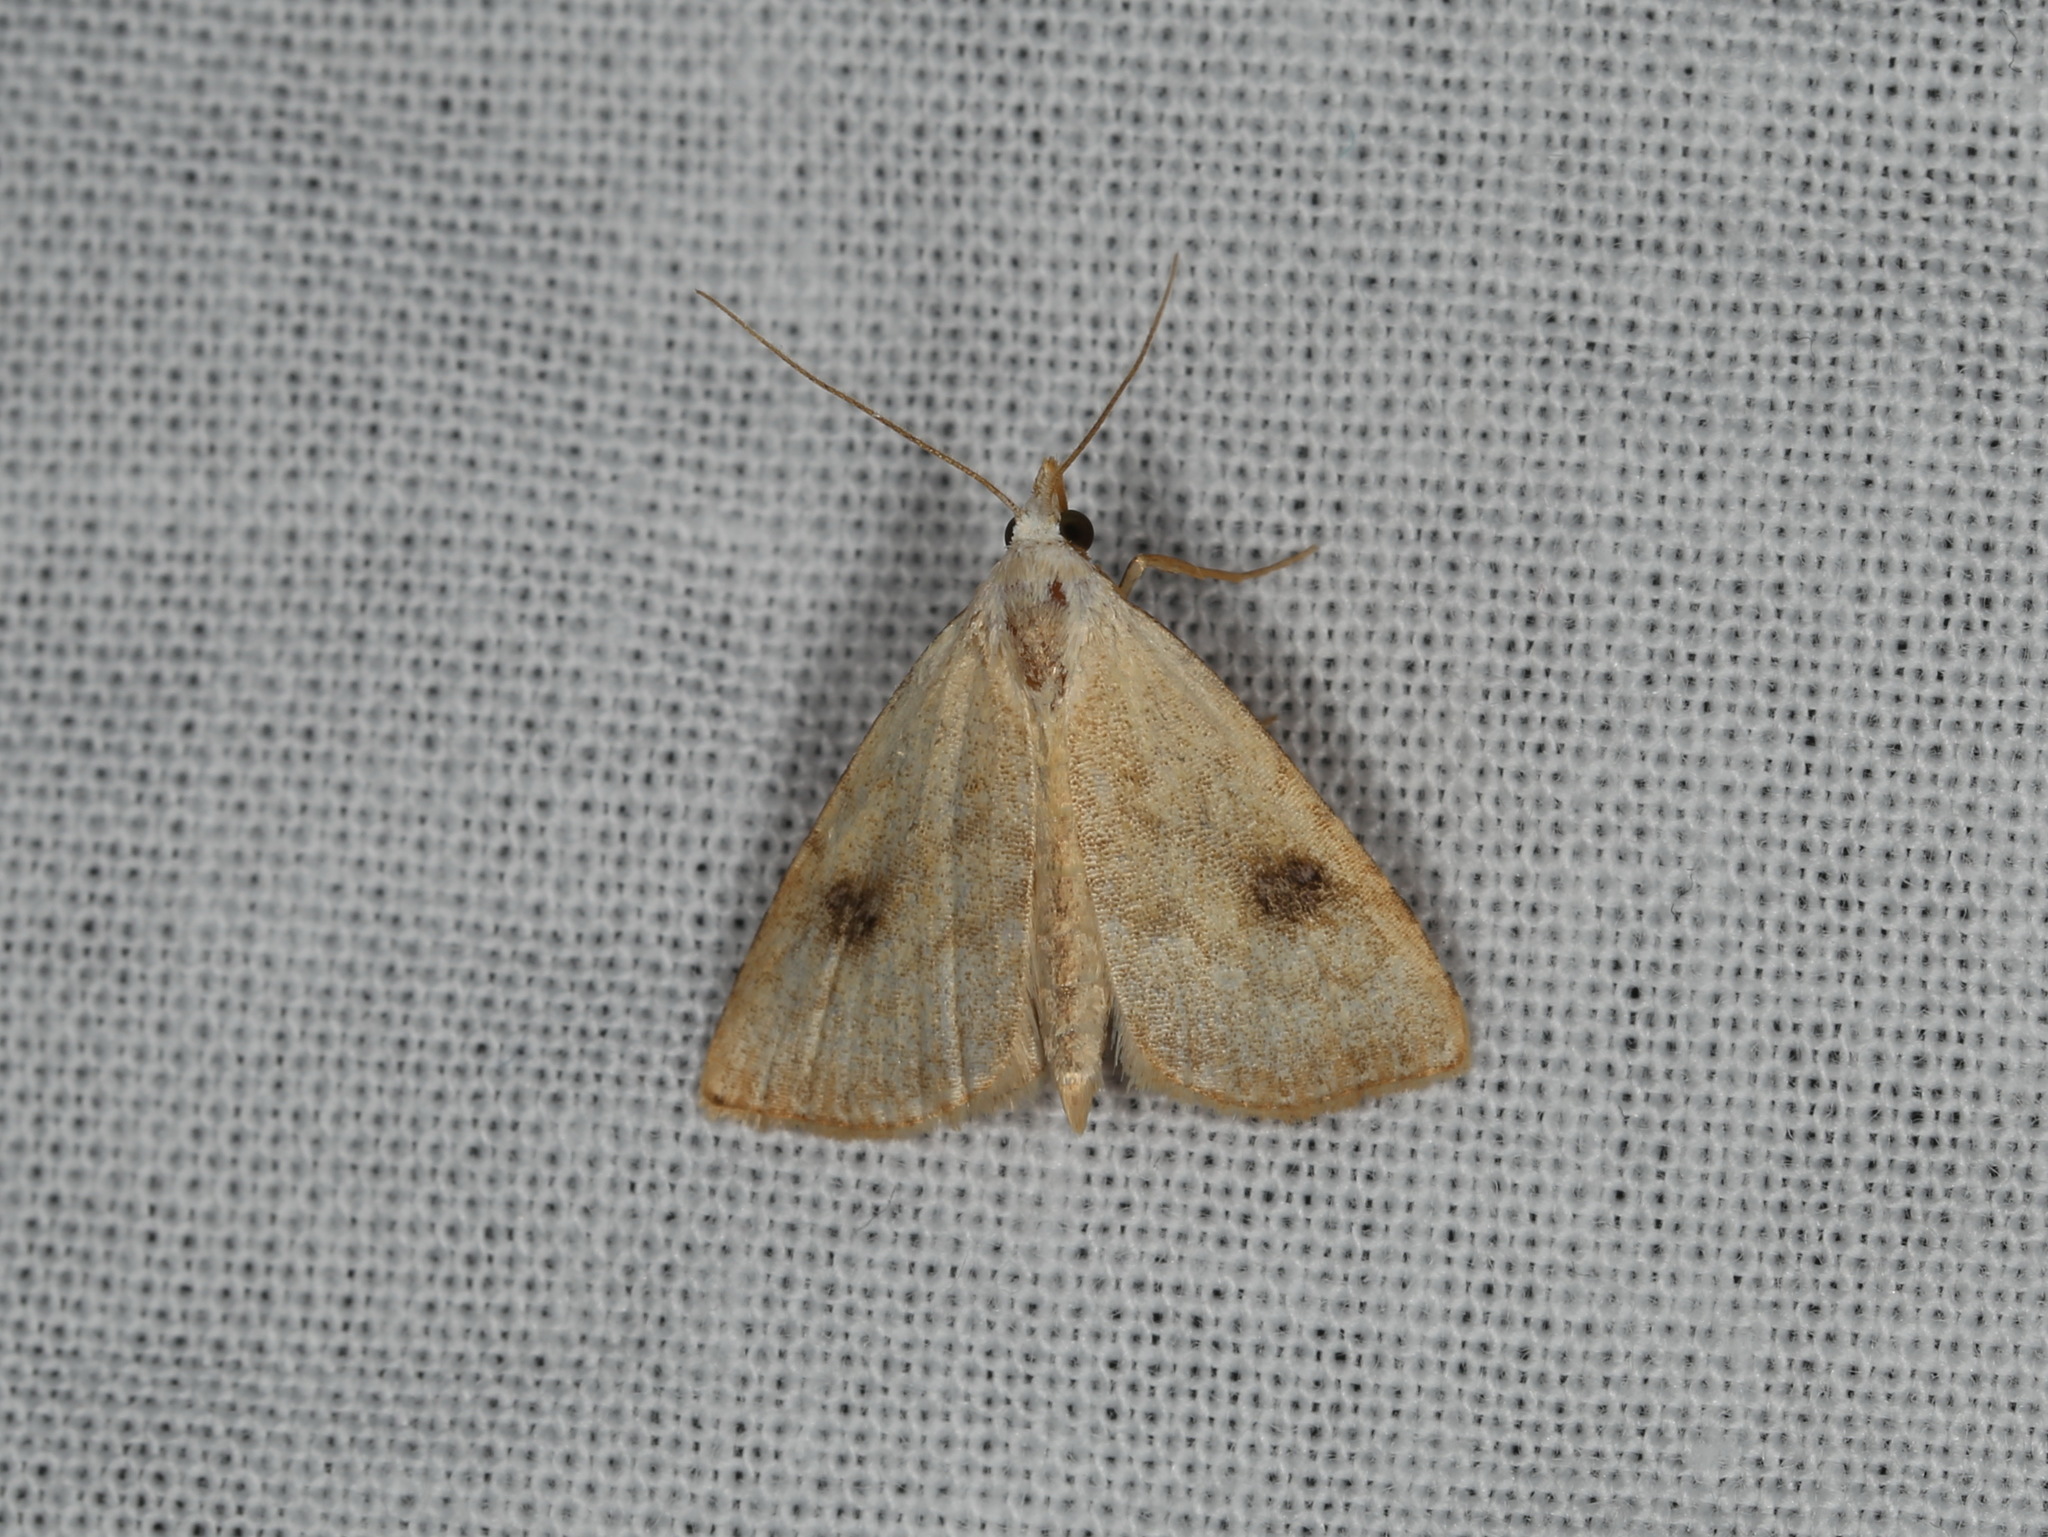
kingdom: Animalia
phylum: Arthropoda
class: Insecta
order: Lepidoptera
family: Erebidae
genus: Rivula
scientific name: Rivula sericealis
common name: Straw dot
